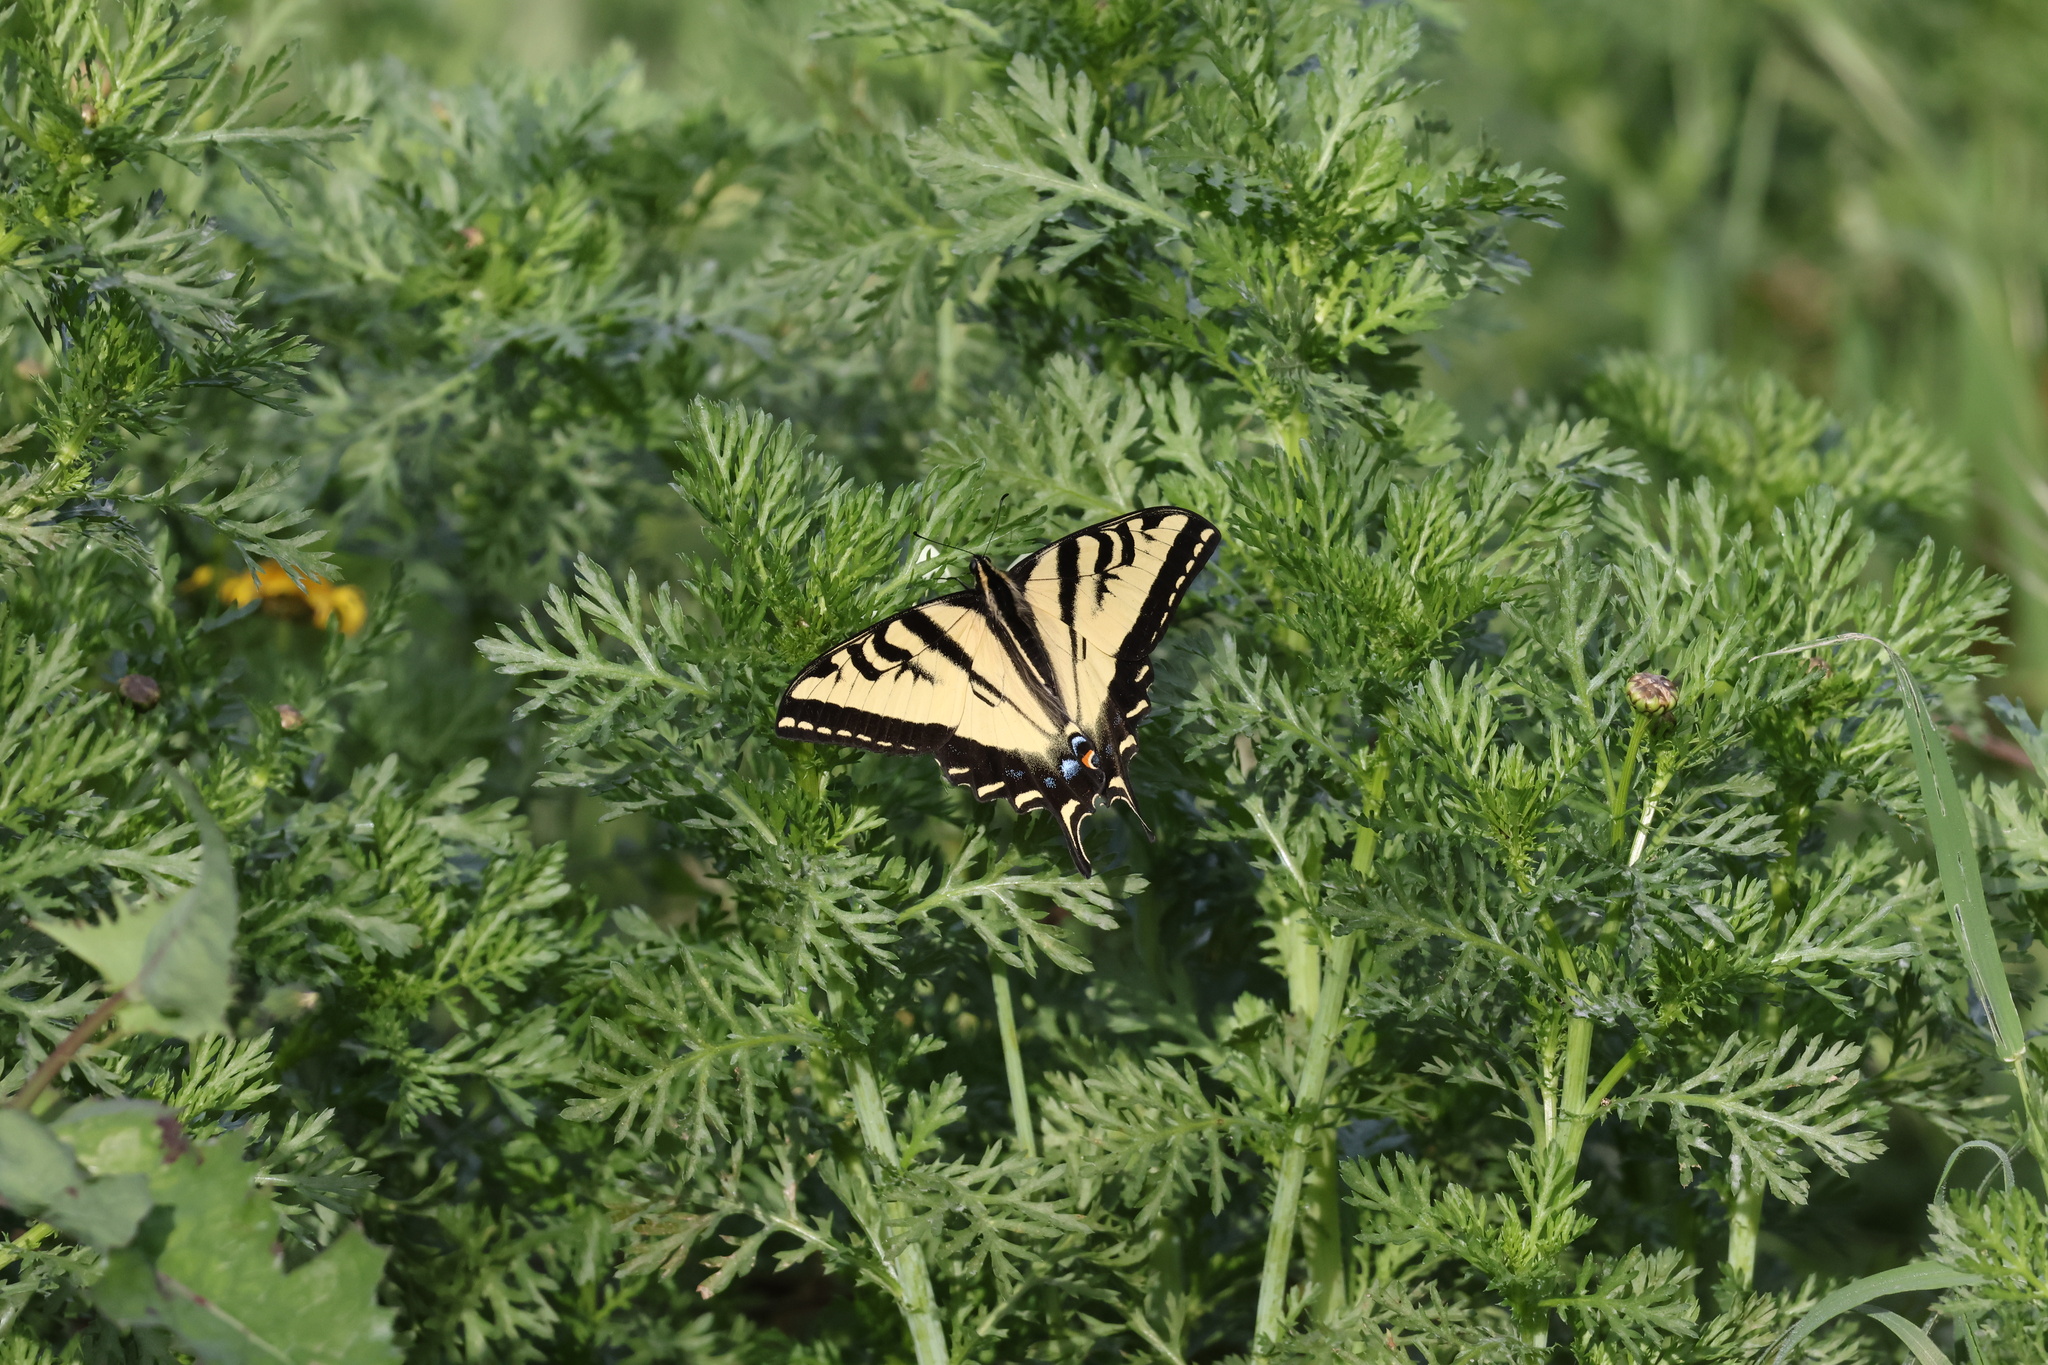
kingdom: Animalia
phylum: Arthropoda
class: Insecta
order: Lepidoptera
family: Papilionidae
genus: Papilio
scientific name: Papilio rutulus
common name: Western tiger swallowtail
